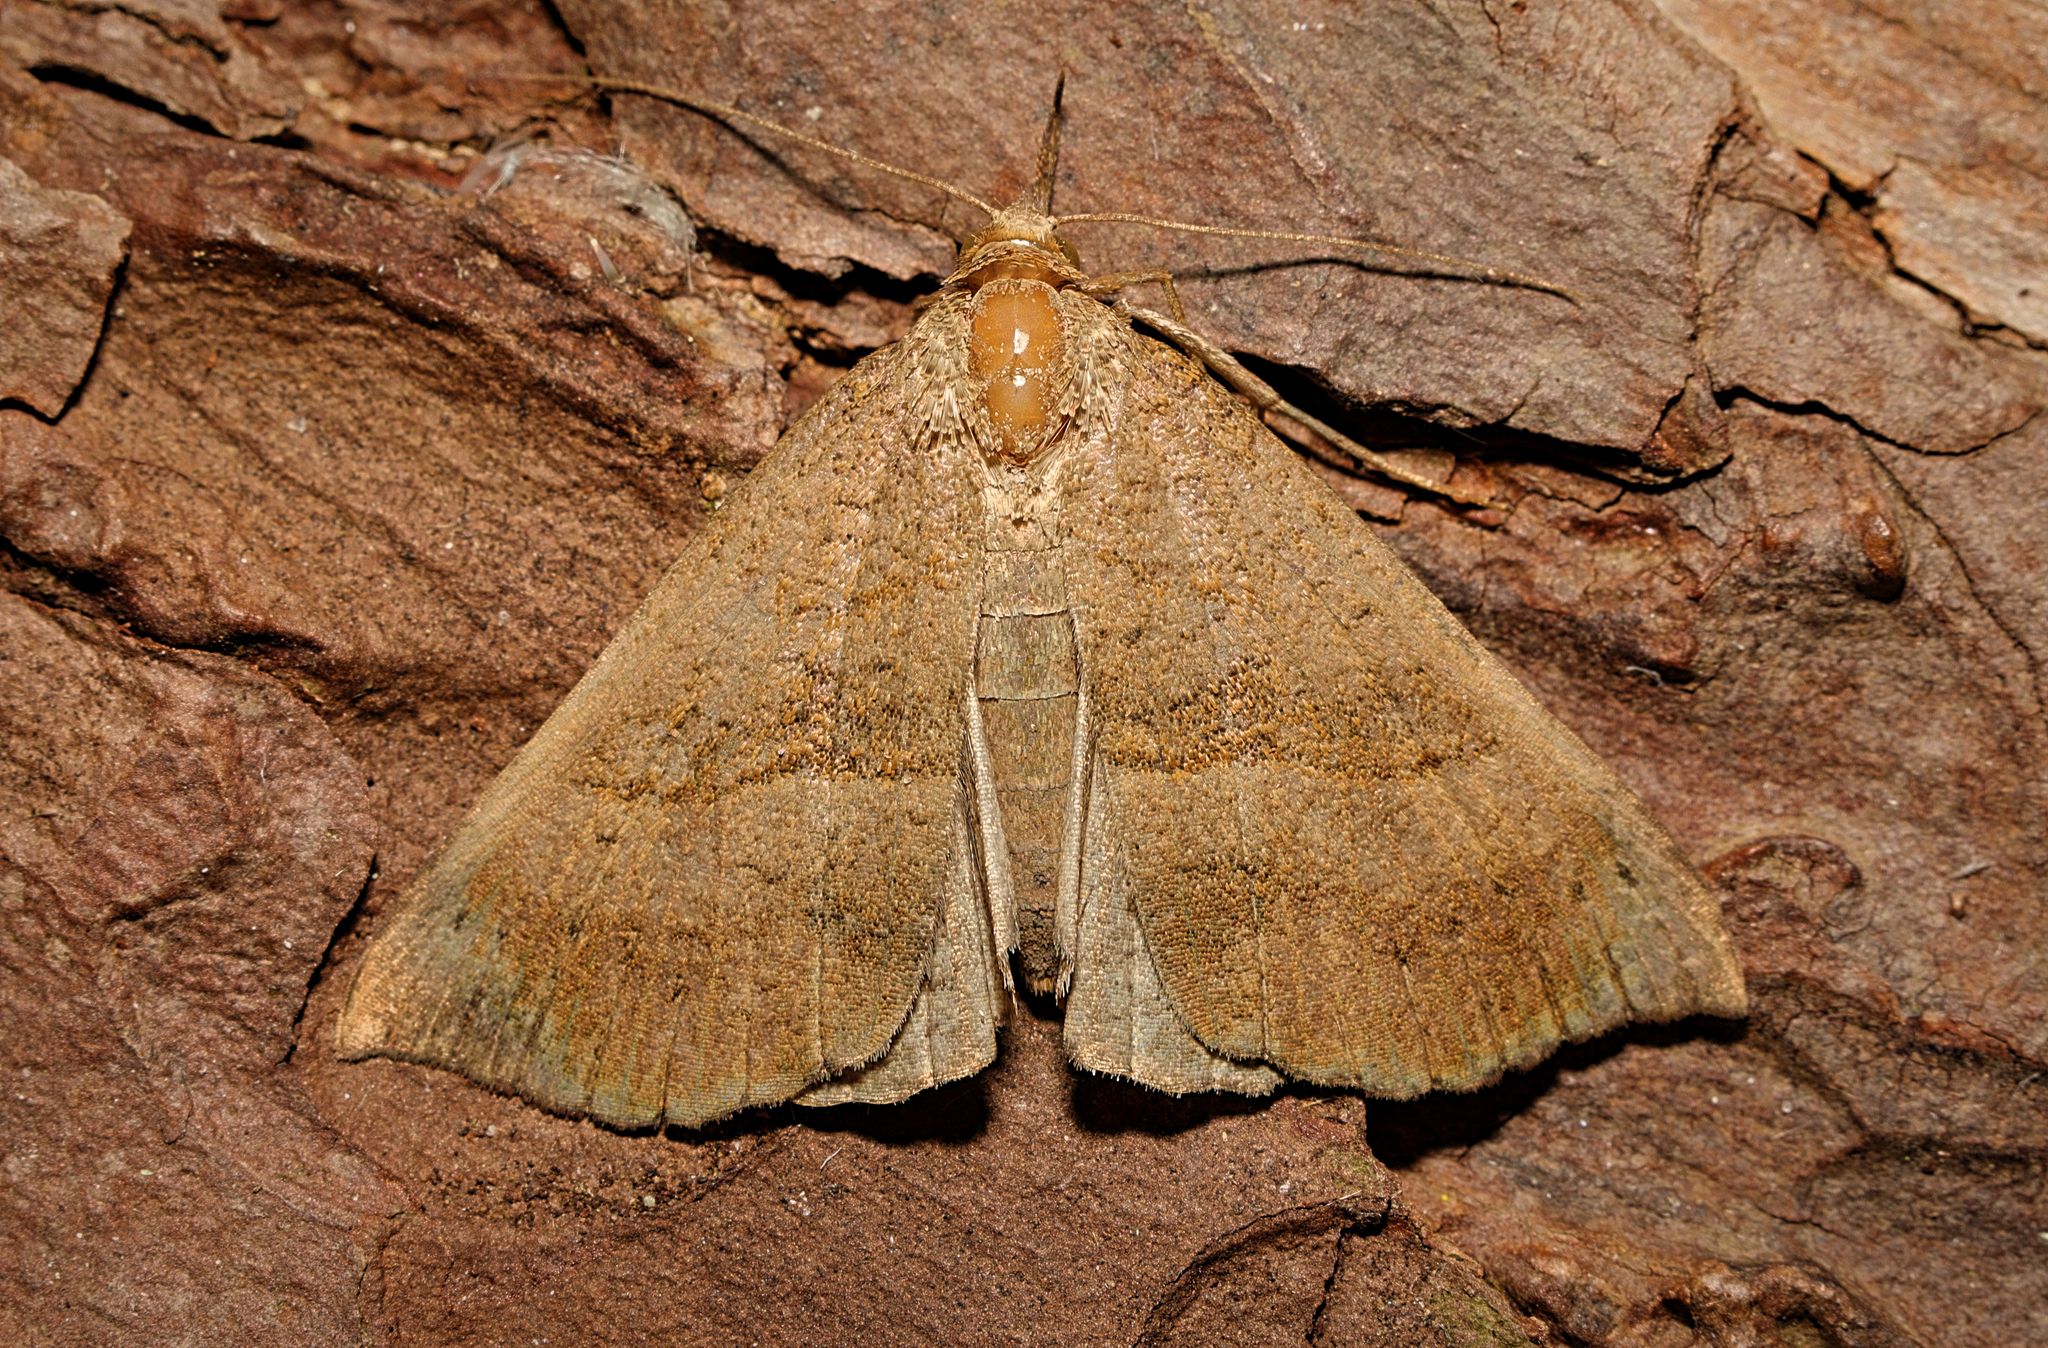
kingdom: Animalia
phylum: Arthropoda
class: Insecta
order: Lepidoptera
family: Erebidae
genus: Hypena
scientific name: Hypena proboscidalis
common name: Snout
